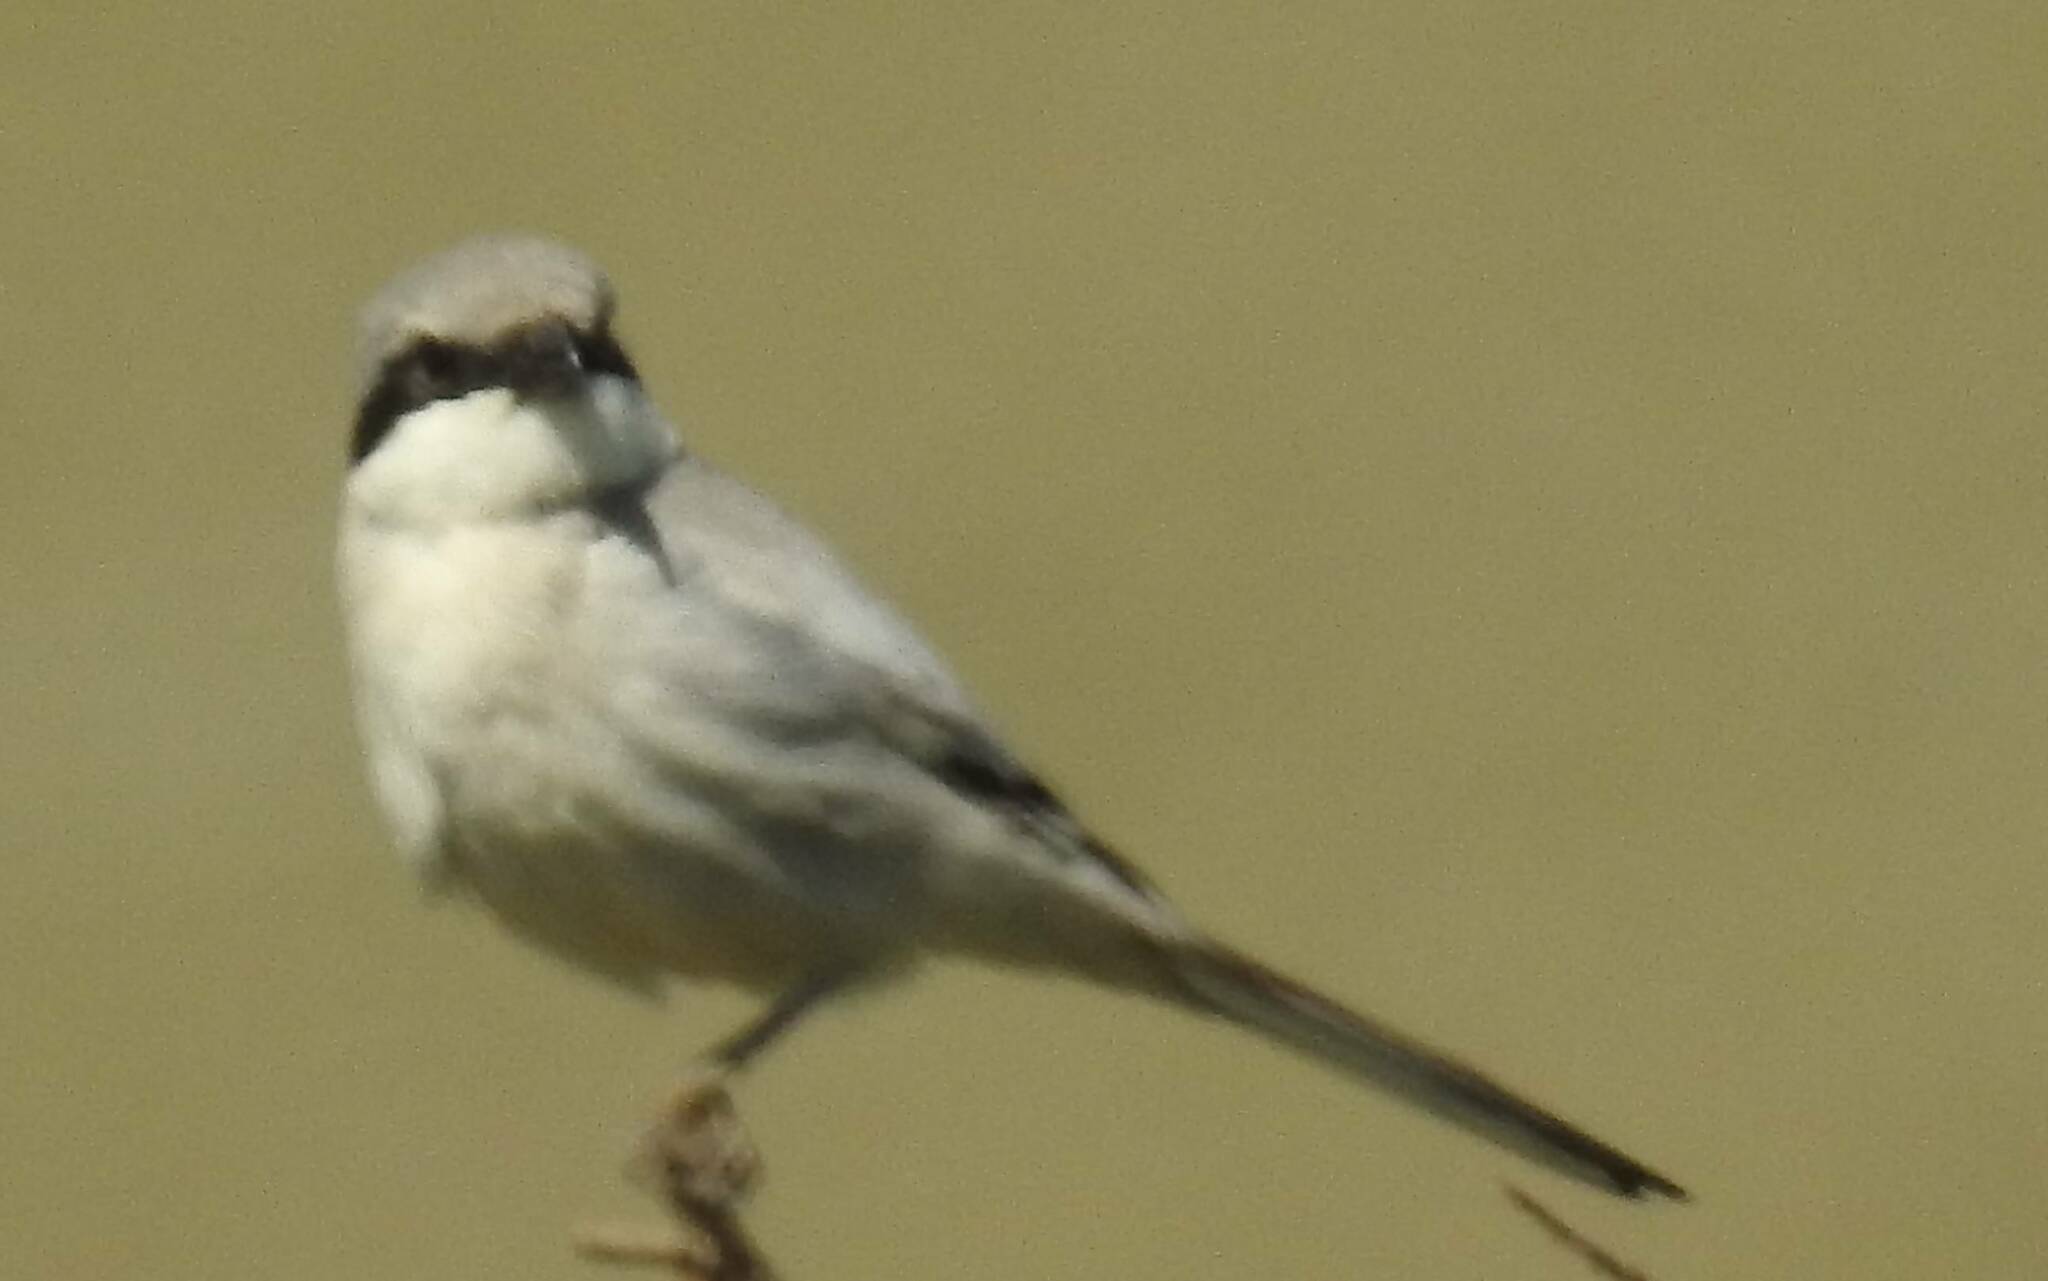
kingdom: Animalia
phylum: Chordata
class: Aves
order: Passeriformes
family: Laniidae
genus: Lanius
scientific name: Lanius excubitor
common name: Great grey shrike
